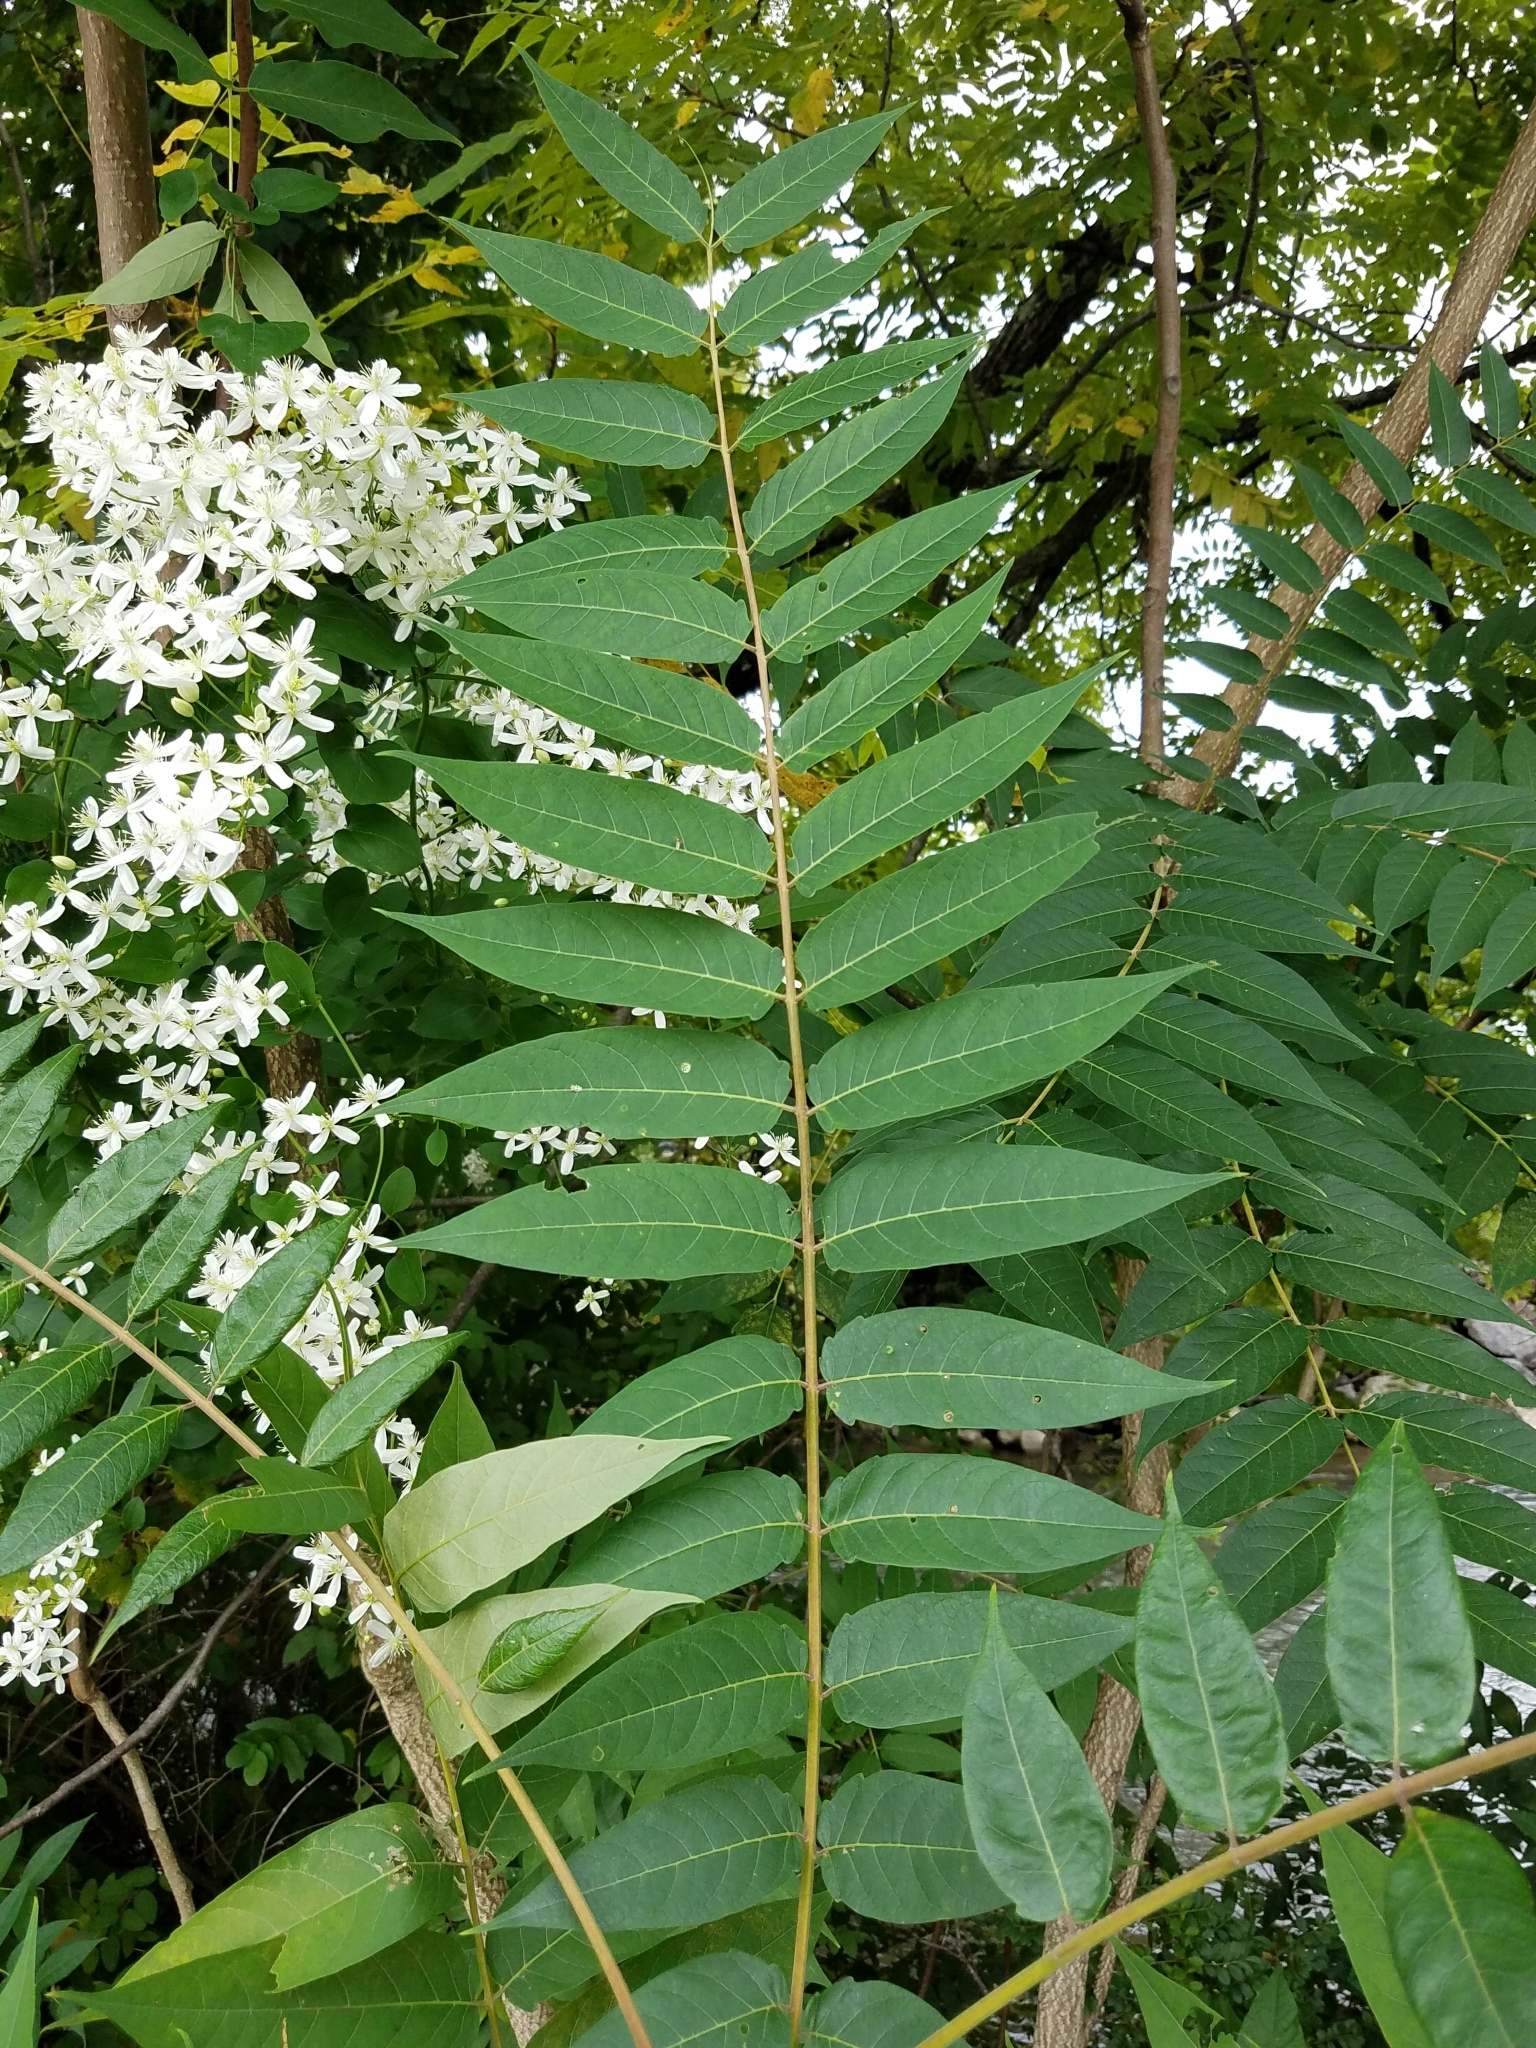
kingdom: Plantae
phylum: Tracheophyta
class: Magnoliopsida
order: Sapindales
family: Simaroubaceae
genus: Ailanthus
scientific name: Ailanthus altissima
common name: Tree-of-heaven
